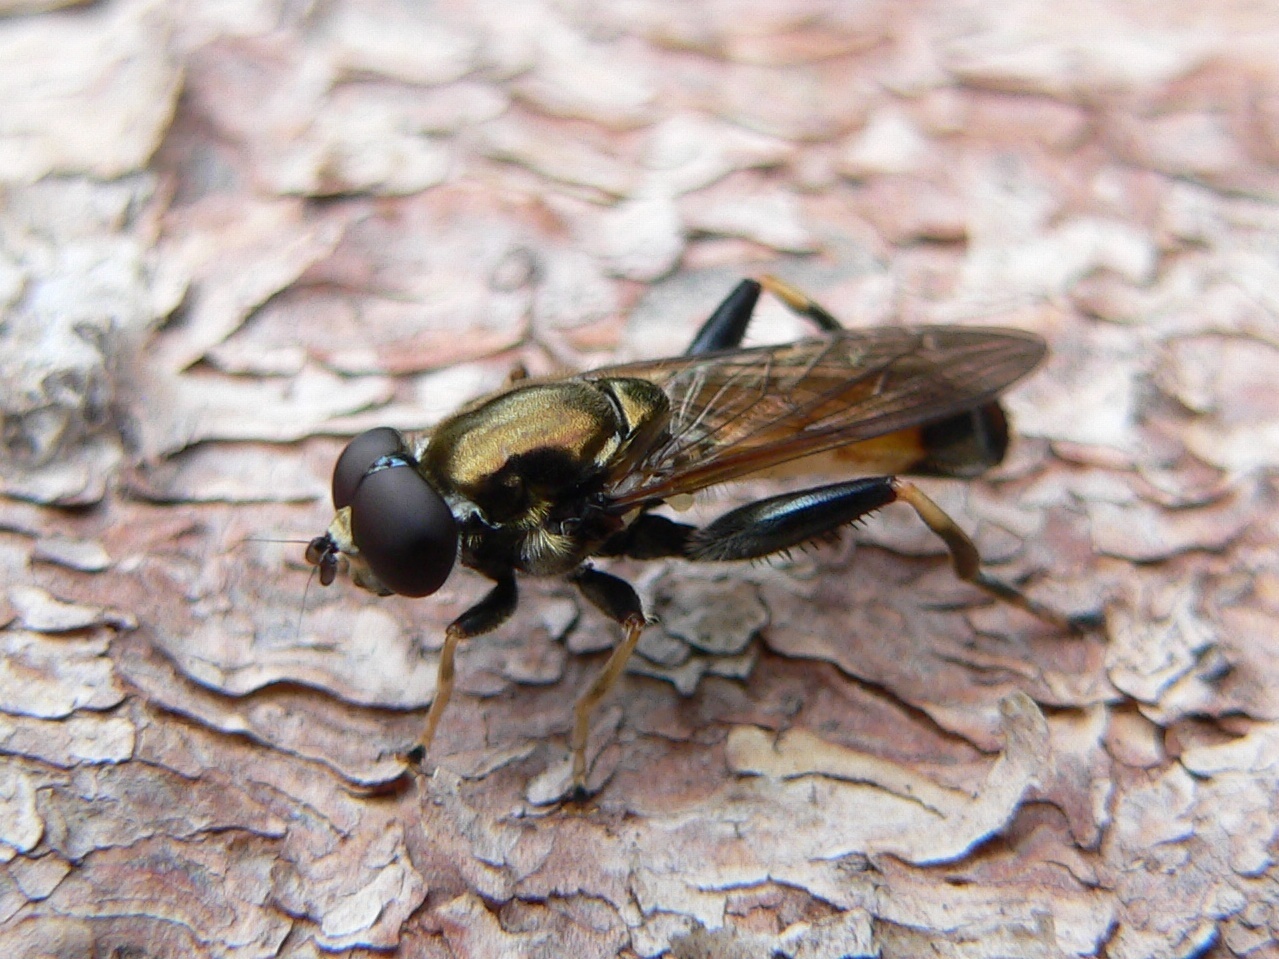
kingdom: Animalia
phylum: Arthropoda
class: Insecta
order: Diptera
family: Syrphidae
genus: Xylota
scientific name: Xylota segnis
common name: Brown-toed forest fly
